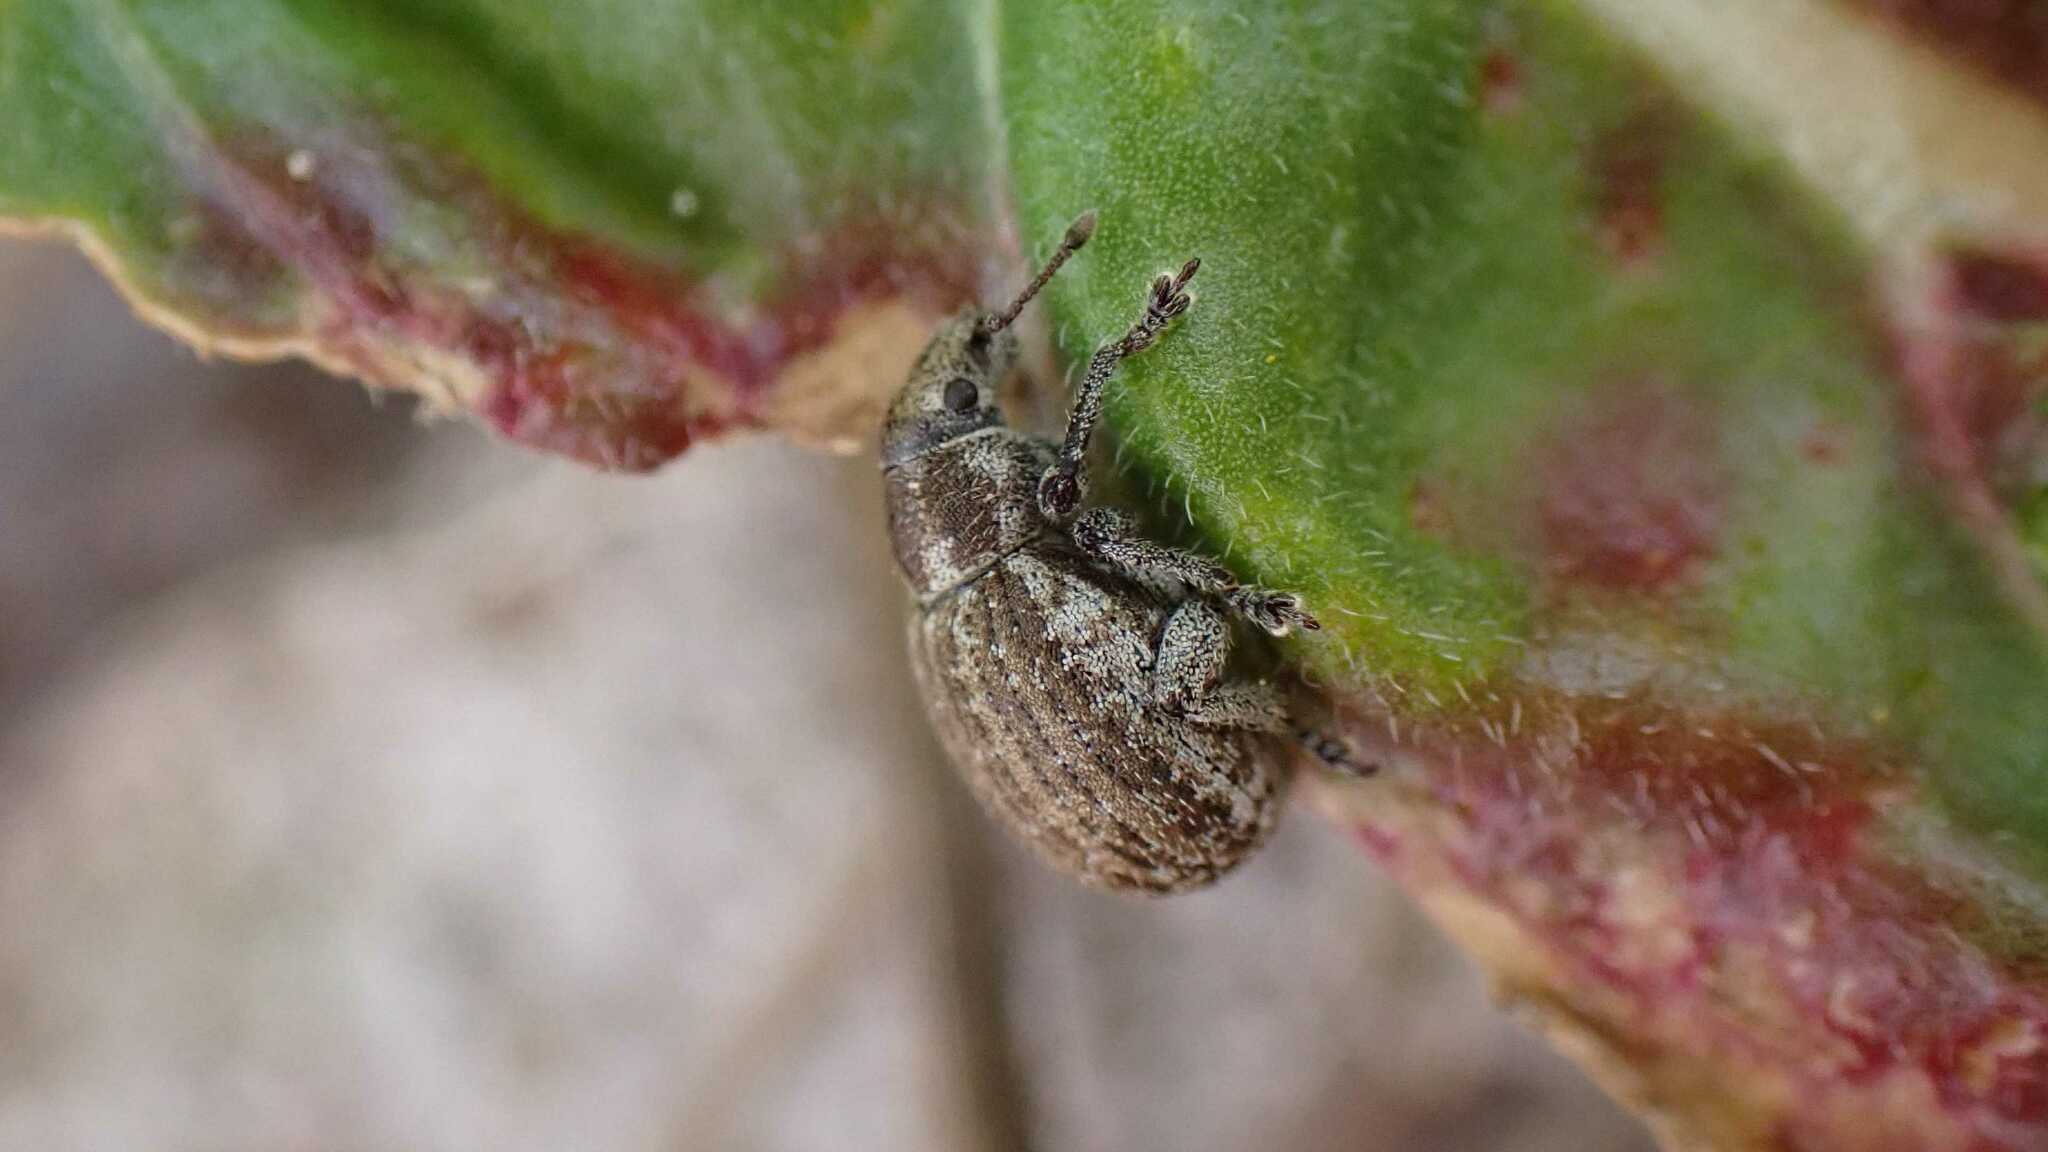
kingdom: Animalia
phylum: Arthropoda
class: Insecta
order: Coleoptera
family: Curculionidae
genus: Philopedon
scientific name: Philopedon plagiatum
